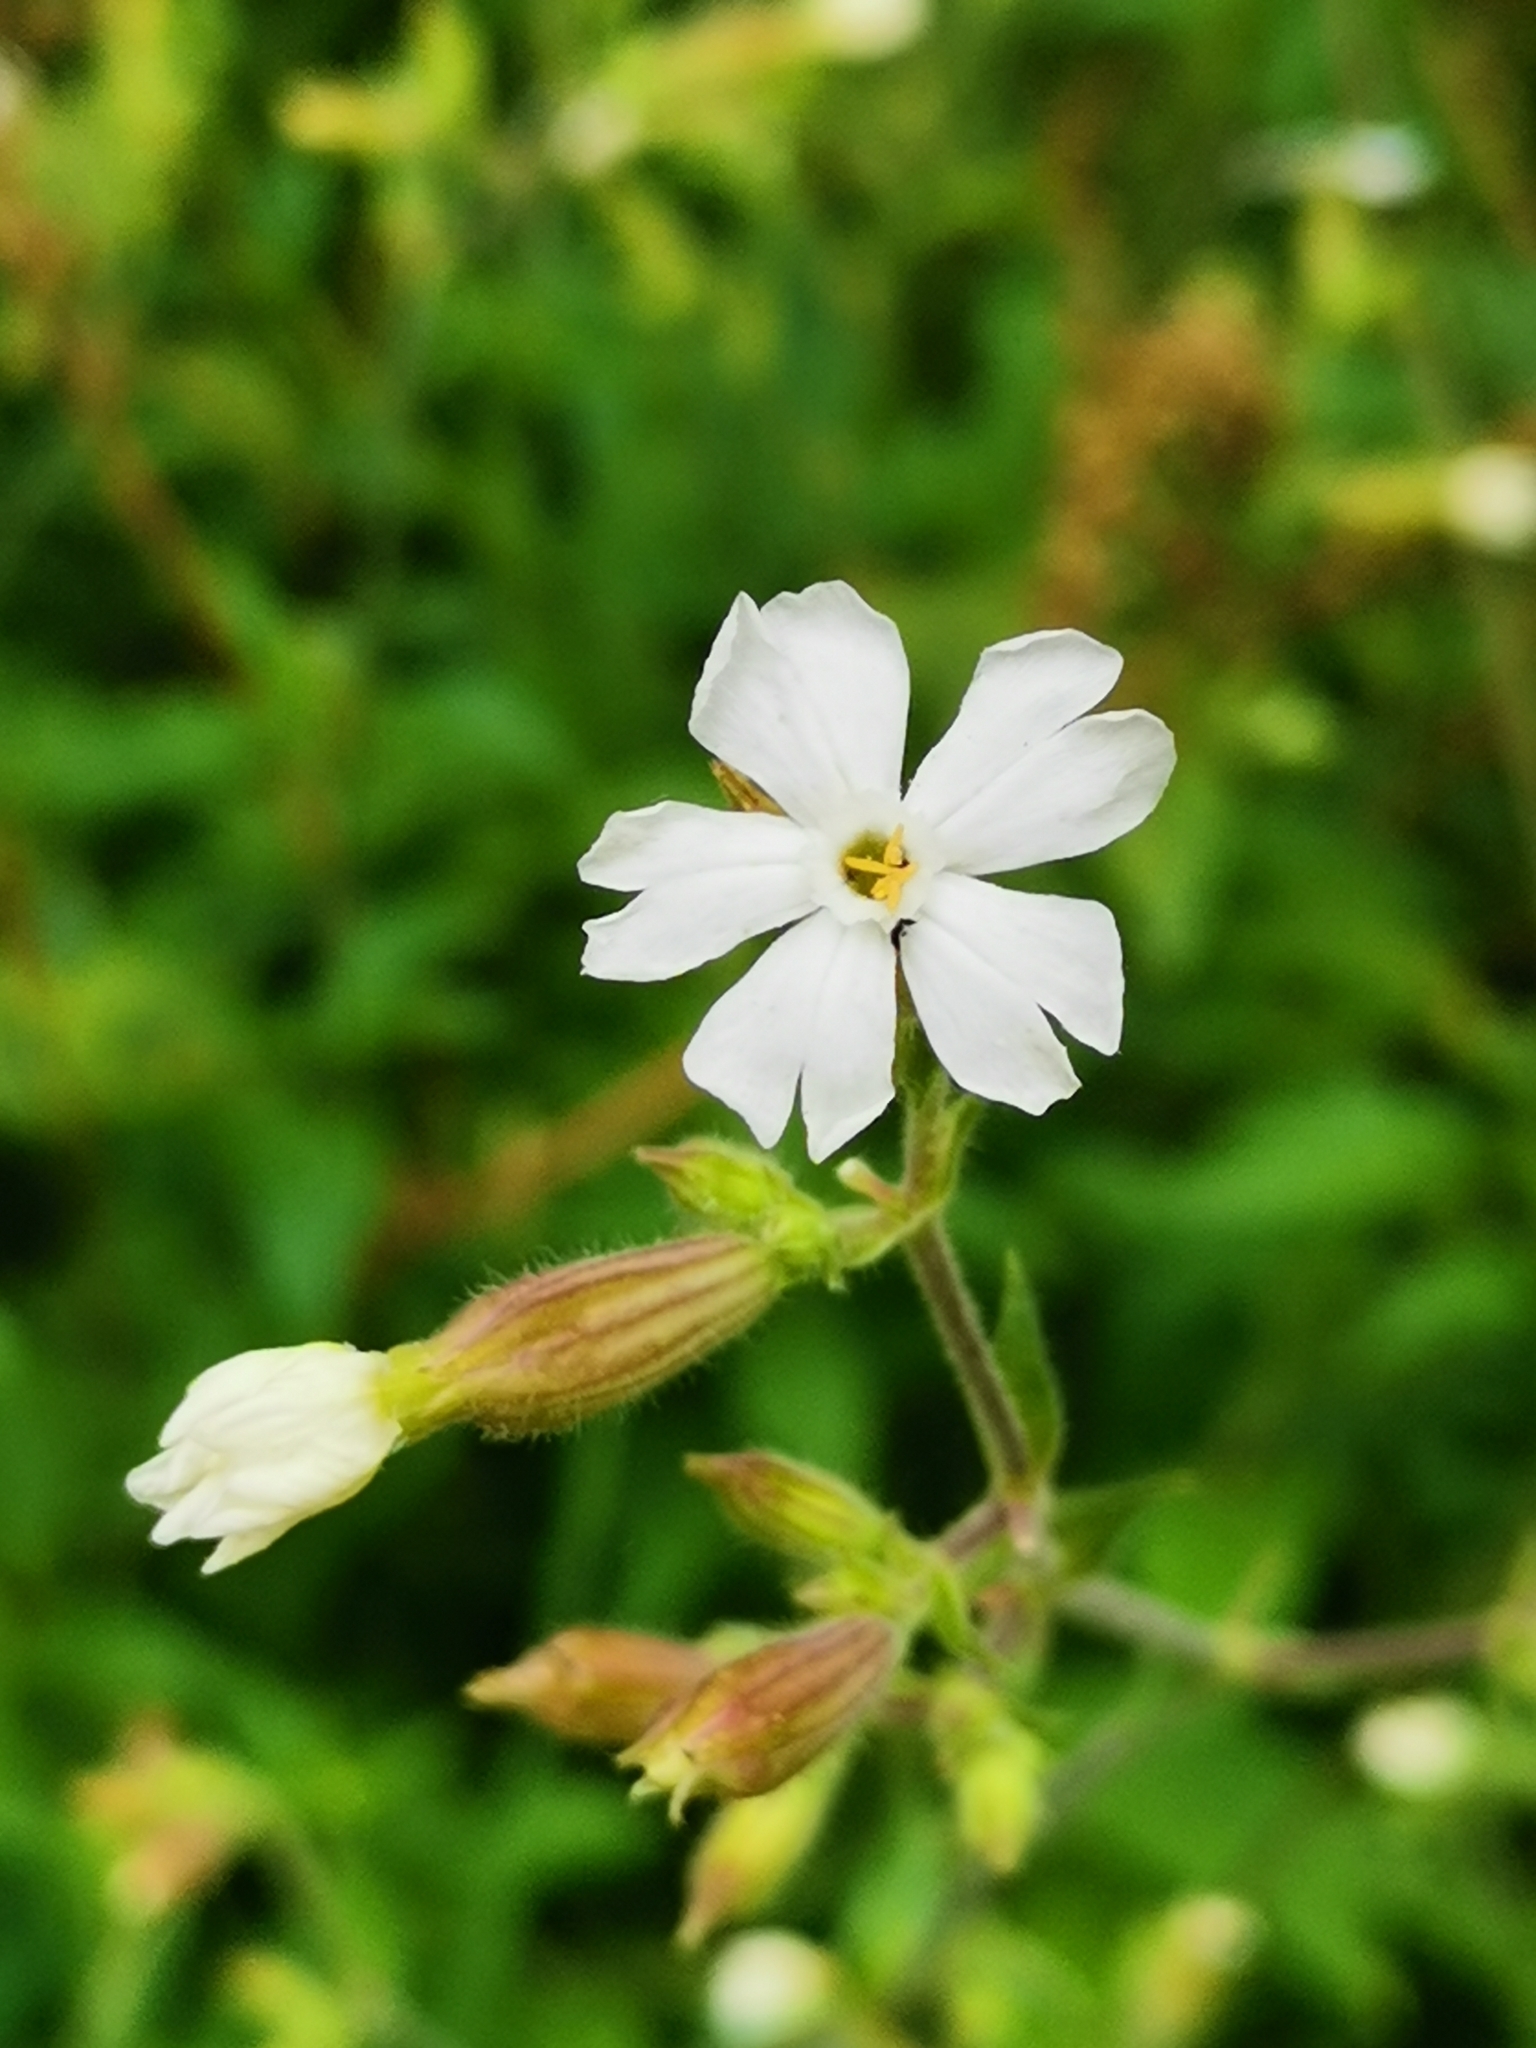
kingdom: Plantae
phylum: Tracheophyta
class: Magnoliopsida
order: Caryophyllales
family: Caryophyllaceae
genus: Silene
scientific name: Silene latifolia
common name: White campion
